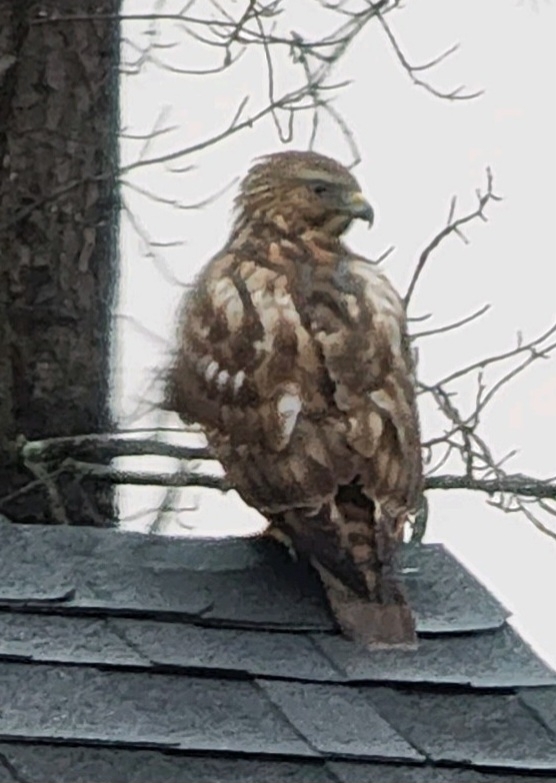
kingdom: Animalia
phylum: Chordata
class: Aves
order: Accipitriformes
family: Accipitridae
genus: Buteo
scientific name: Buteo lineatus
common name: Red-shouldered hawk
